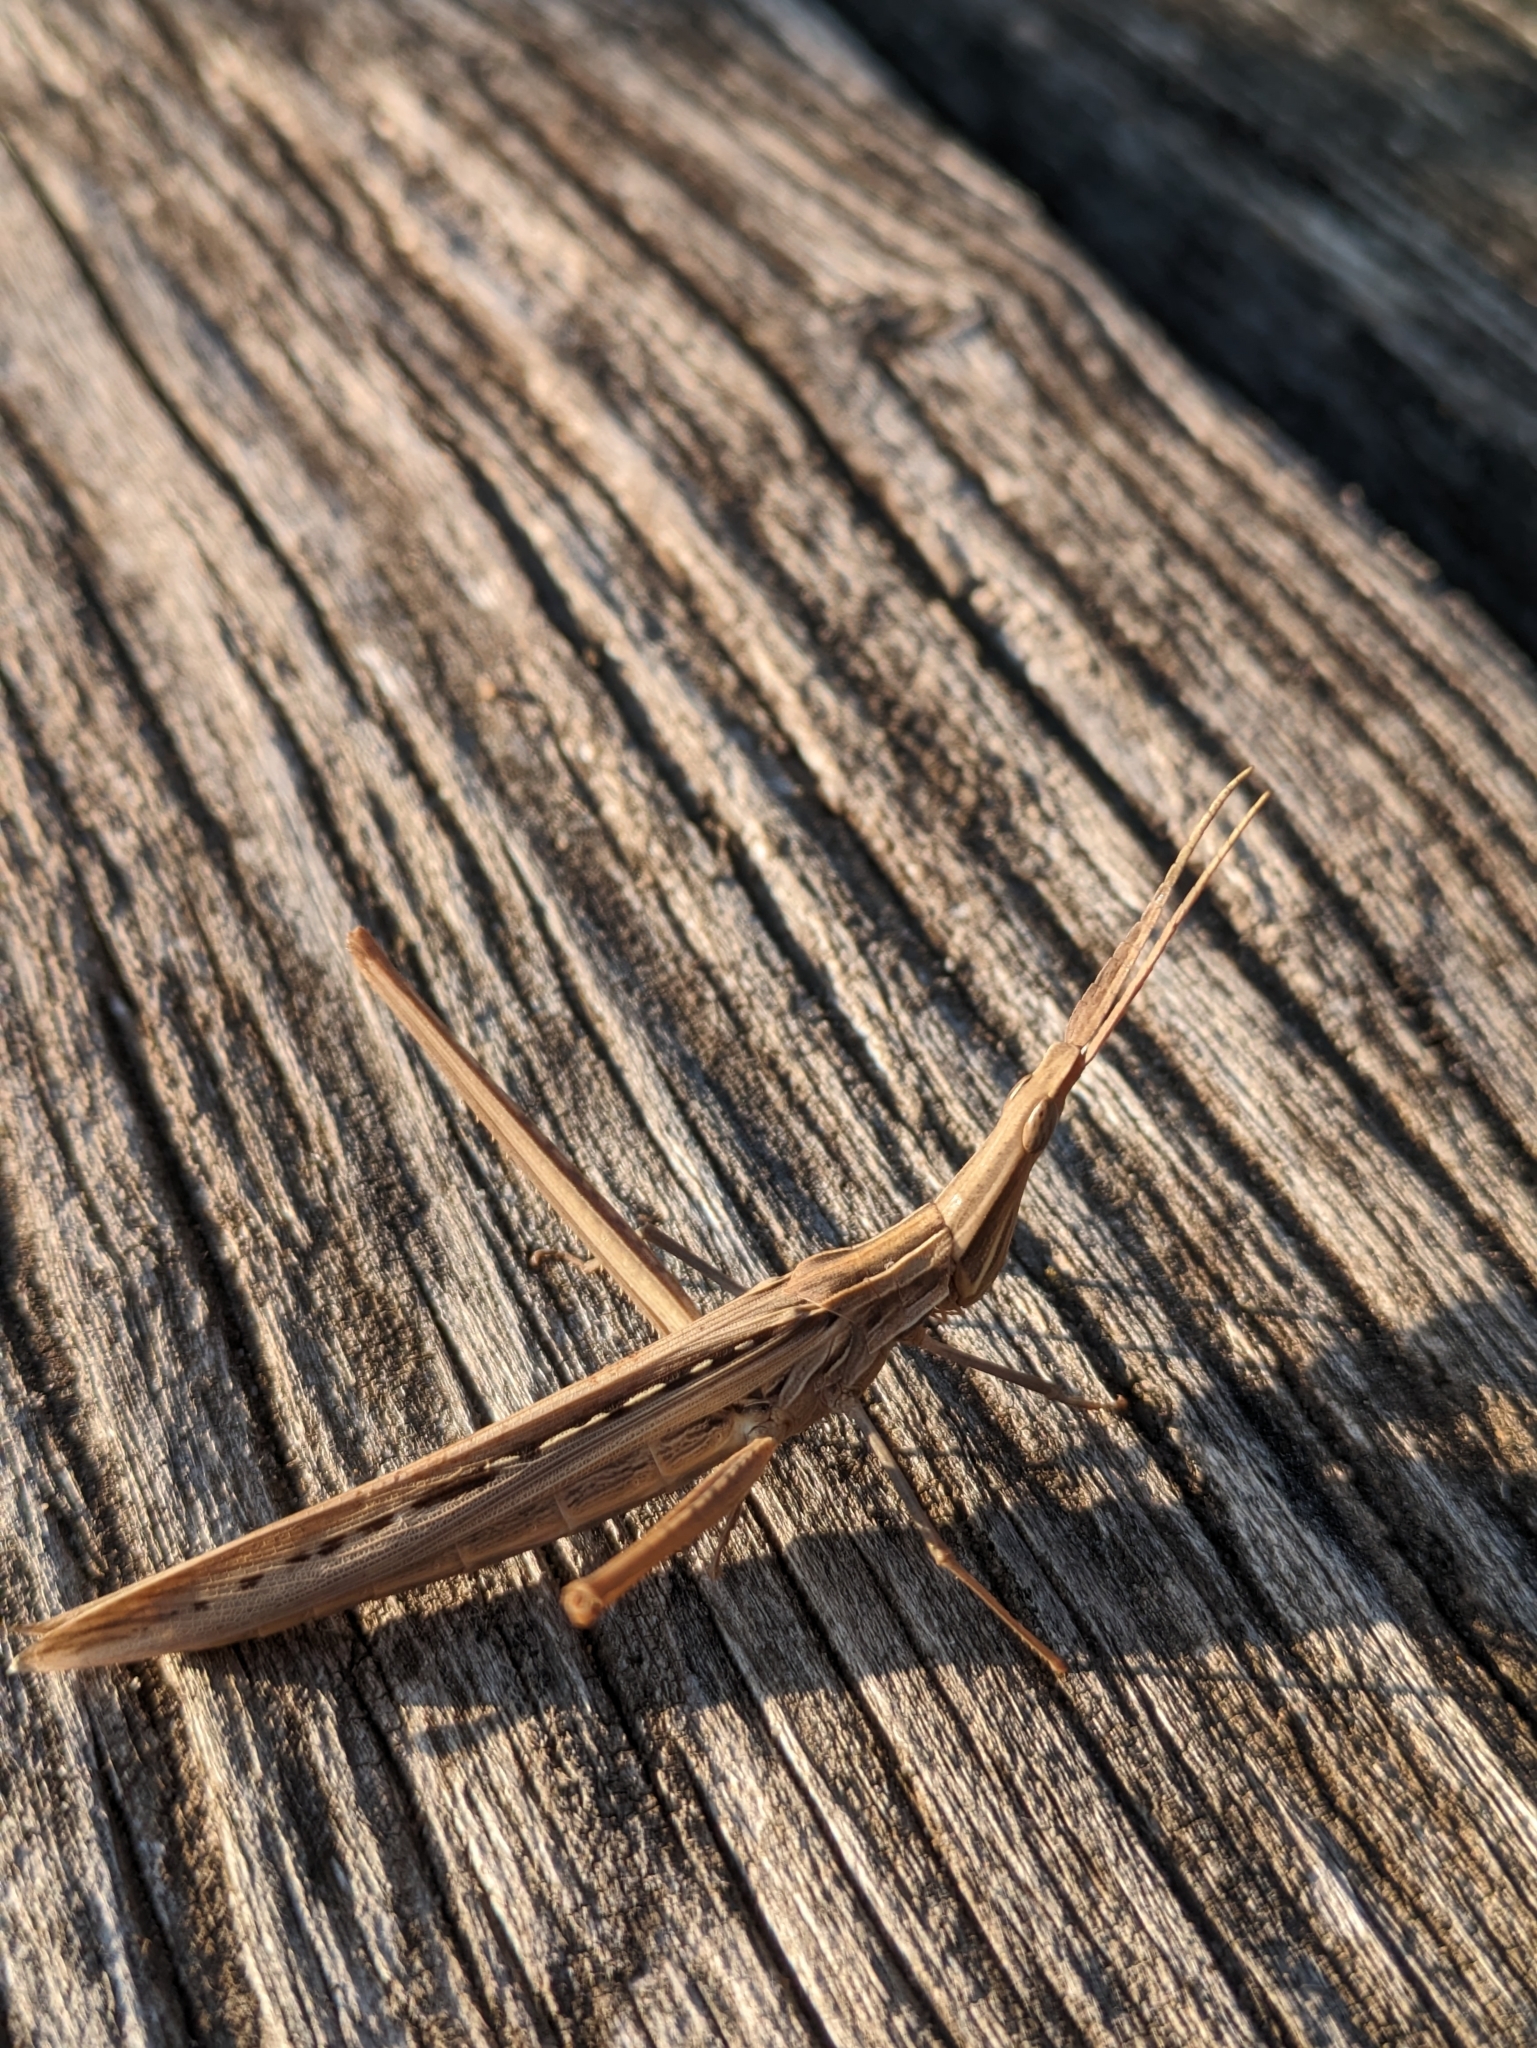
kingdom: Animalia
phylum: Arthropoda
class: Insecta
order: Orthoptera
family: Acrididae
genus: Acrida
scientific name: Acrida ungarica
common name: Common cone-headed grasshopper
